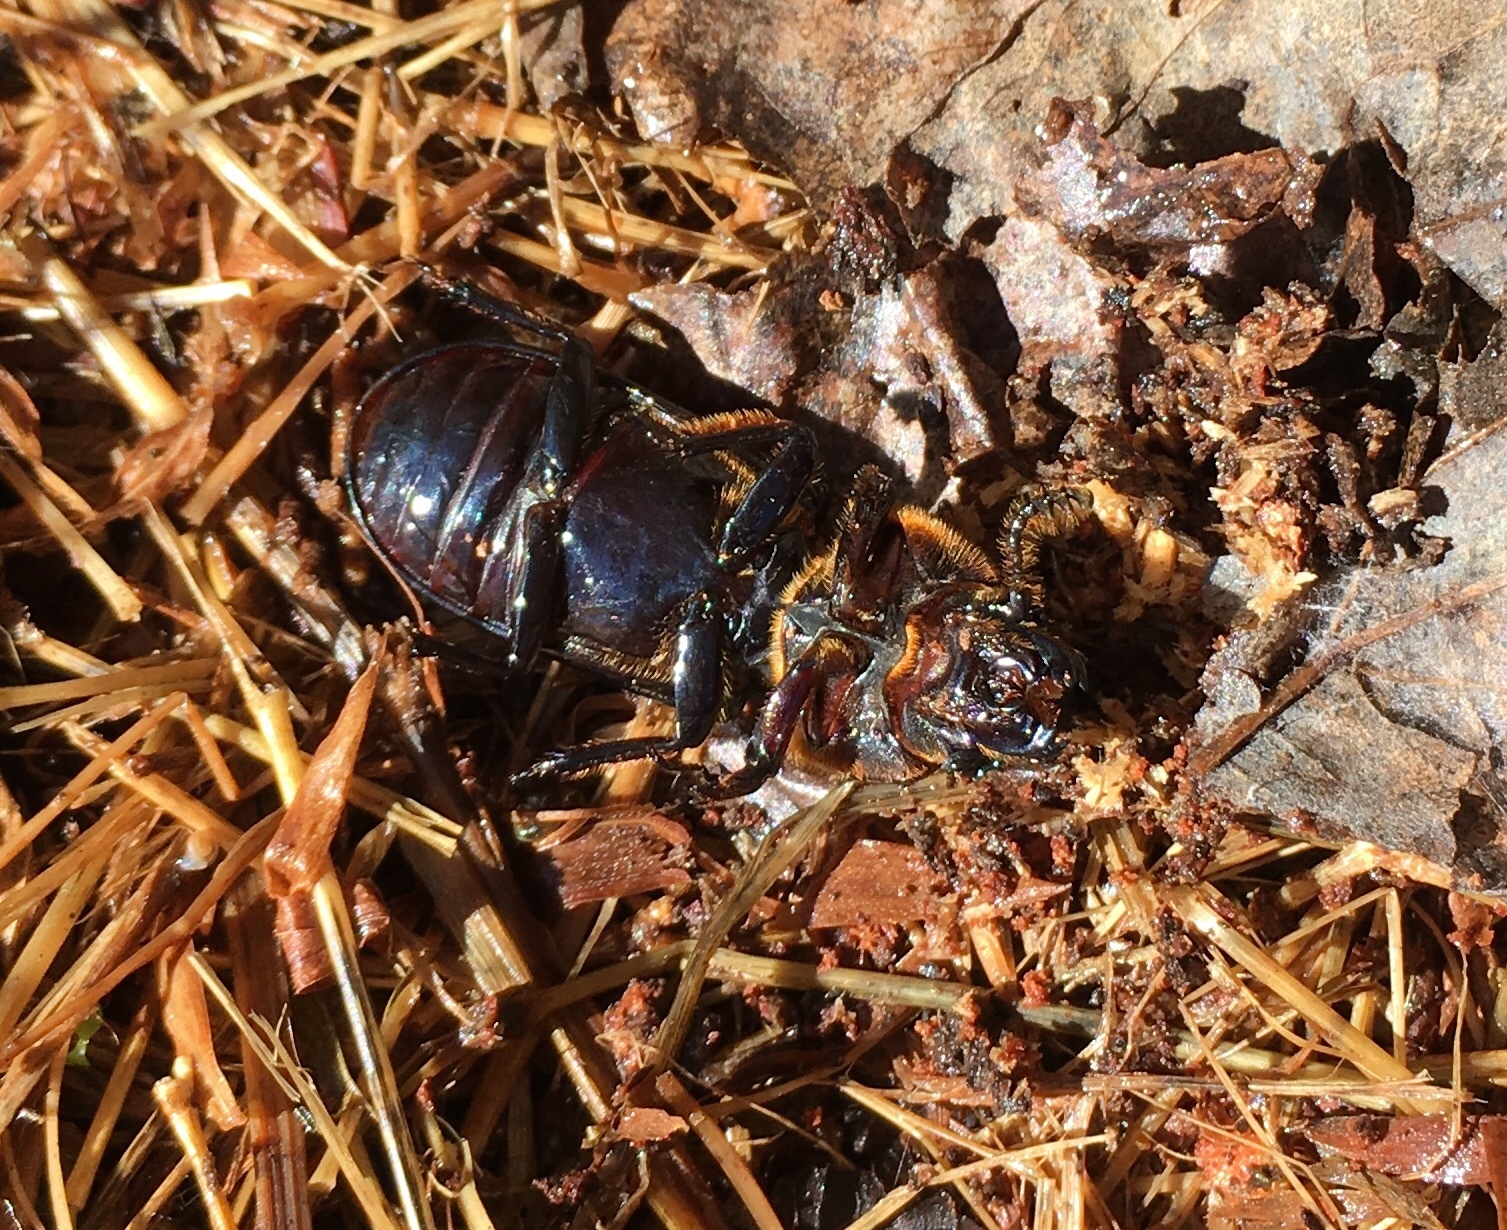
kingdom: Animalia
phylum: Arthropoda
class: Insecta
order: Coleoptera
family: Passalidae
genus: Odontotaenius
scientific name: Odontotaenius disjunctus
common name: Patent leather beetle
